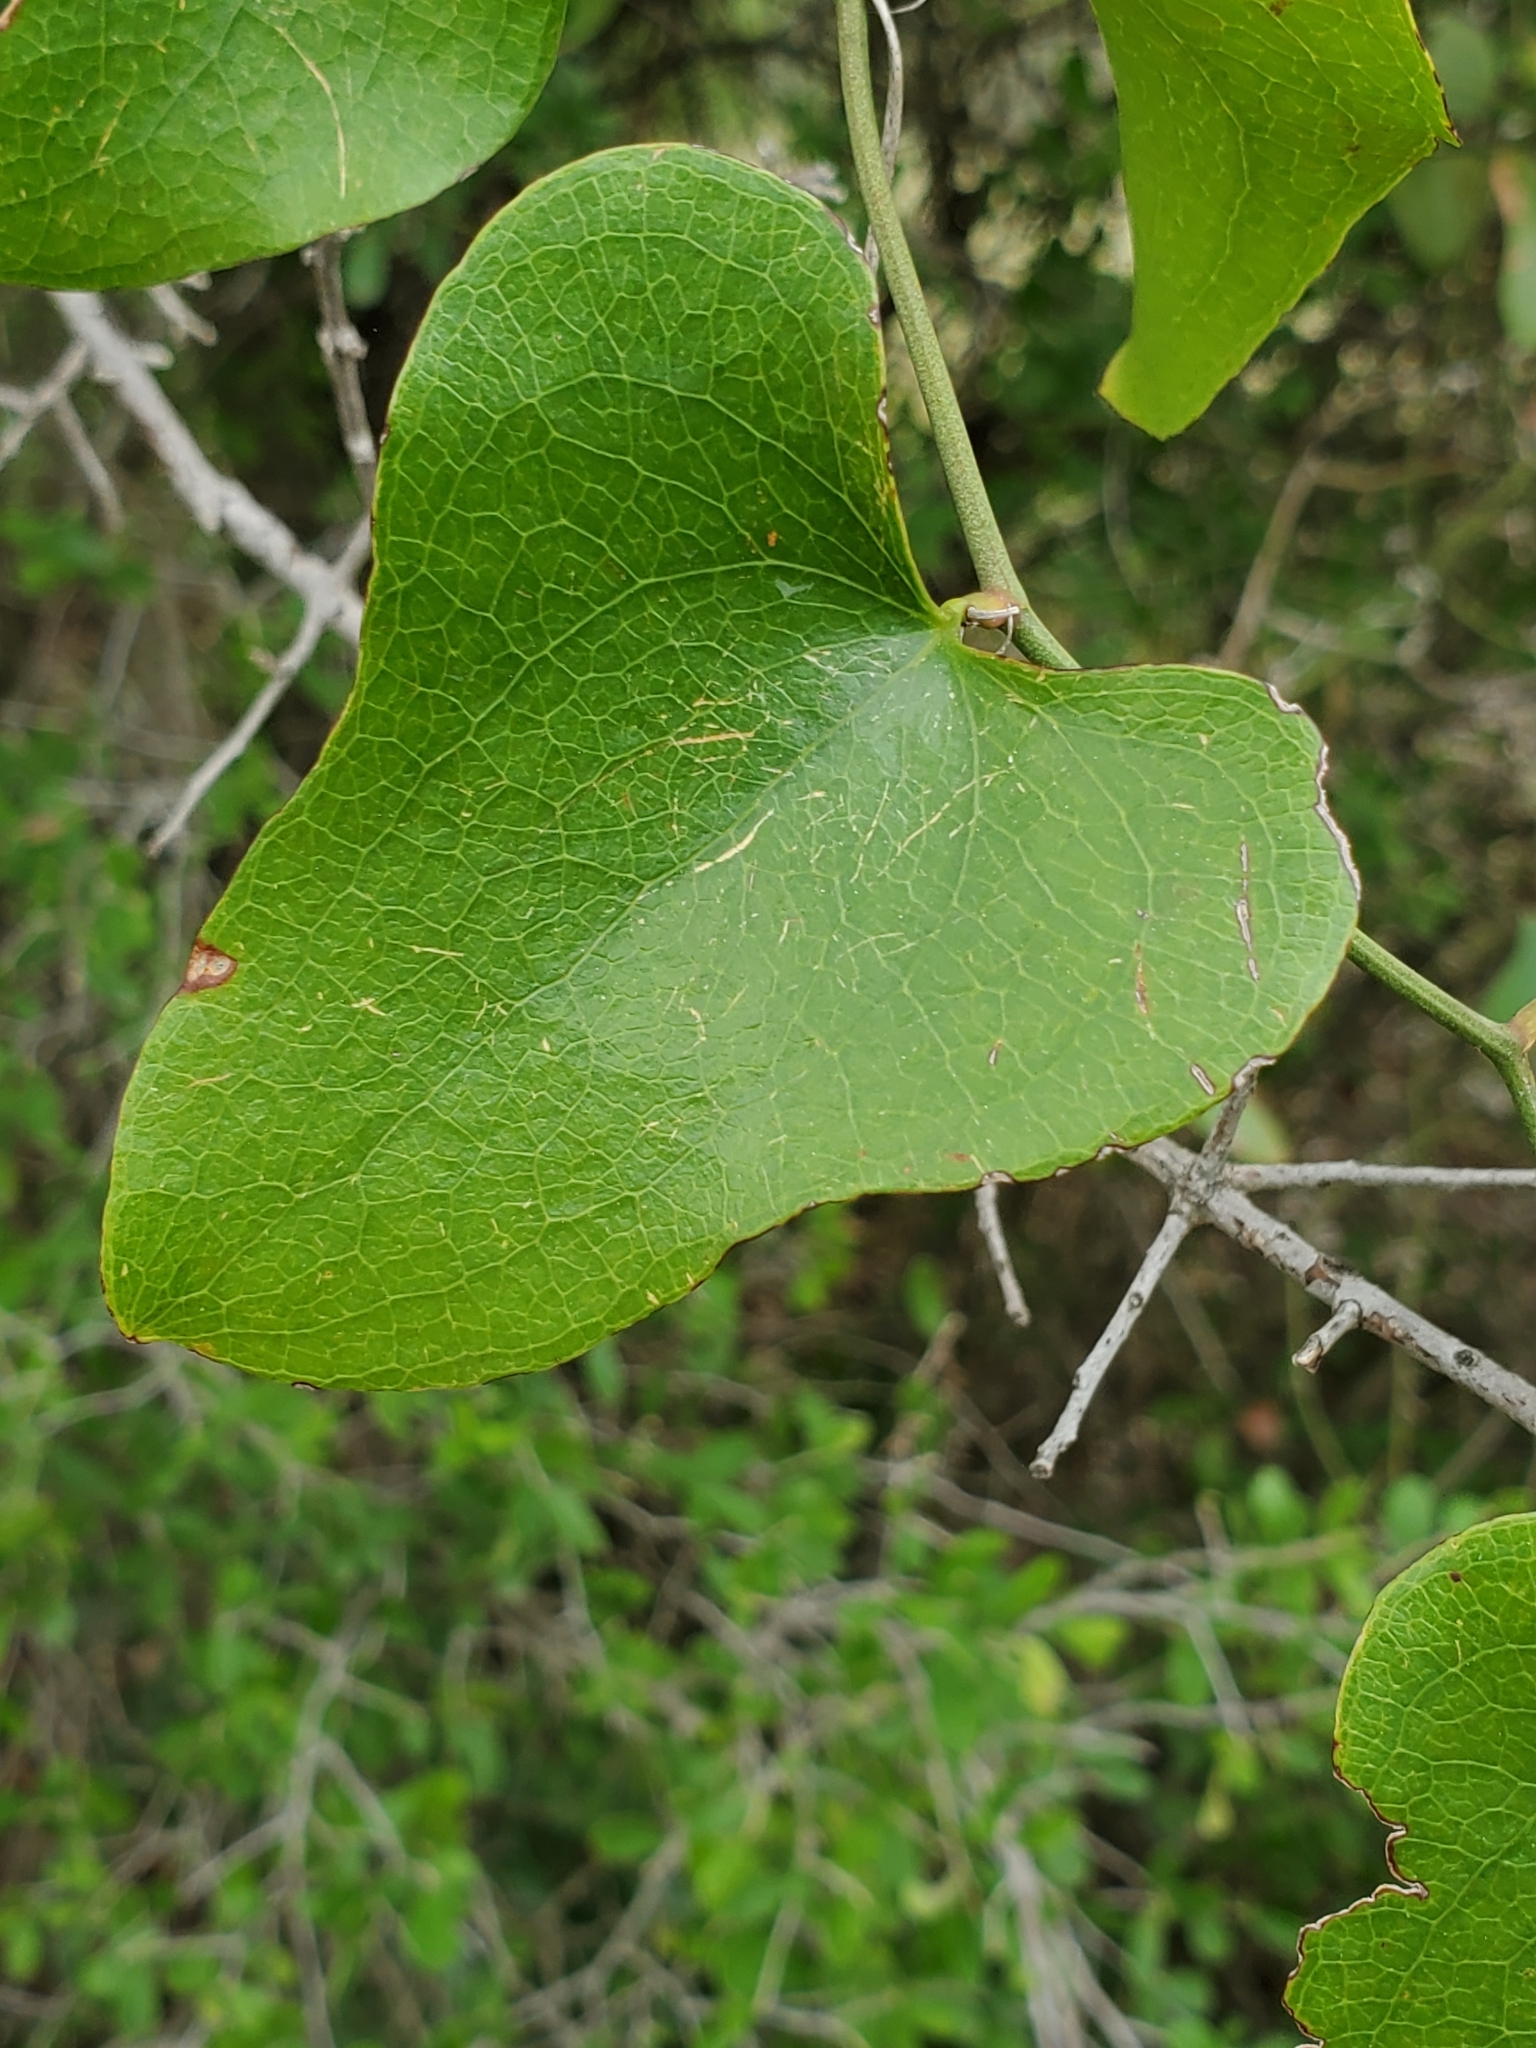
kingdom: Plantae
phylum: Tracheophyta
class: Liliopsida
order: Liliales
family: Smilacaceae
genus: Smilax
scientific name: Smilax bona-nox
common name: Catbrier
